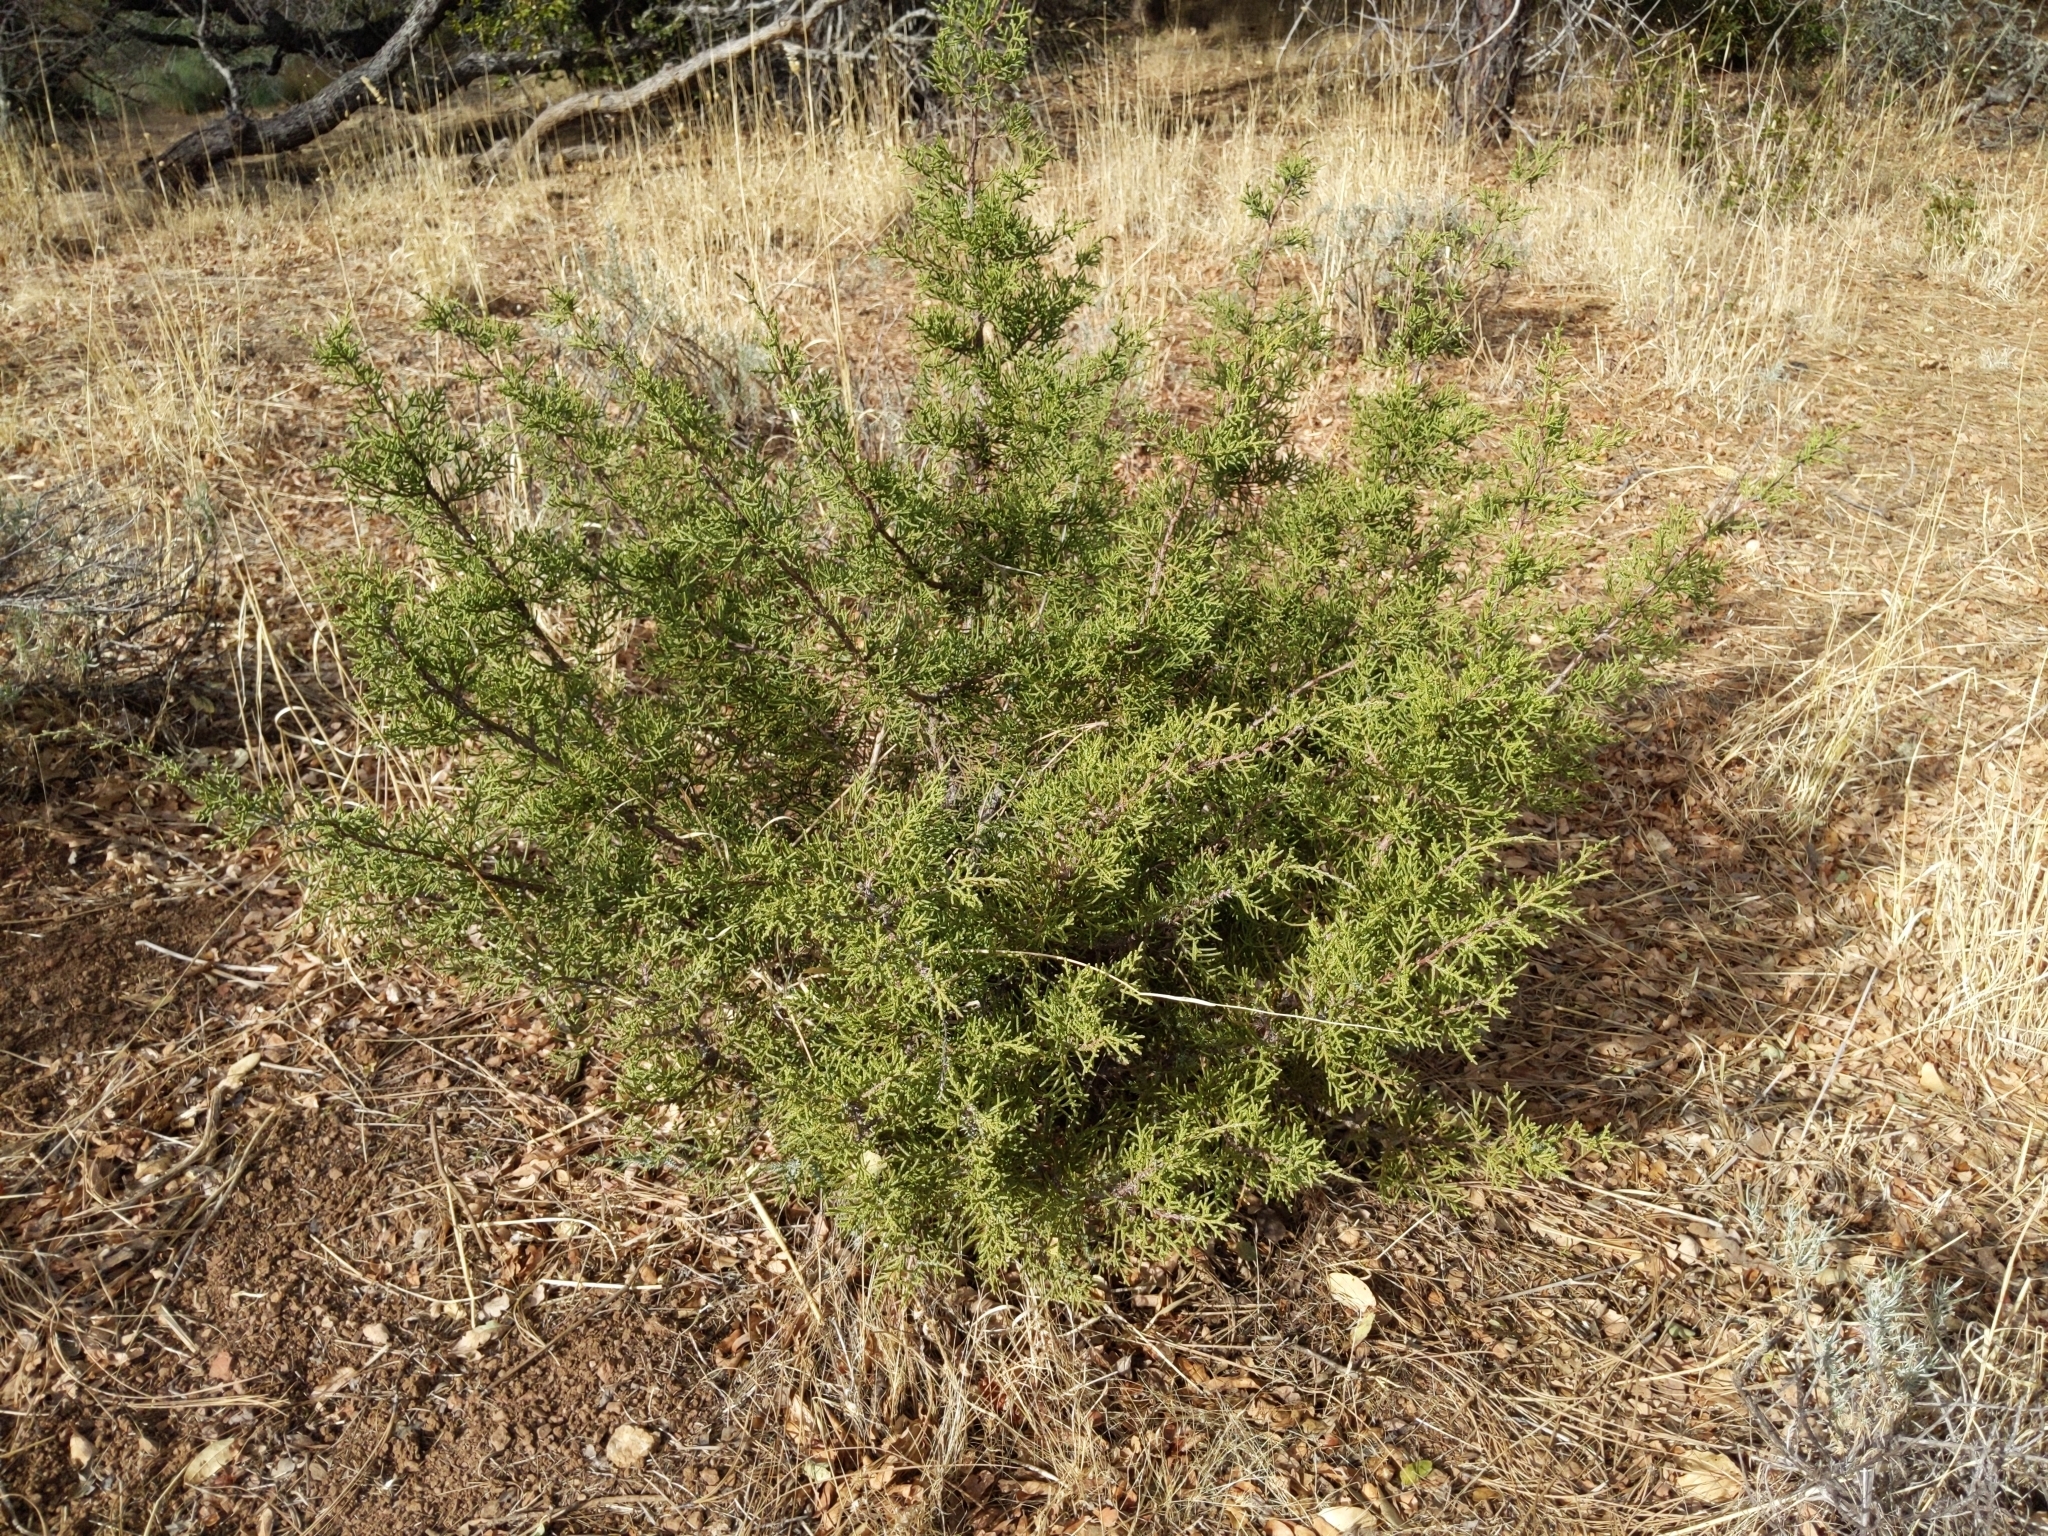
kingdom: Plantae
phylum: Tracheophyta
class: Pinopsida
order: Pinales
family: Cupressaceae
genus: Juniperus
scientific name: Juniperus californica
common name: California juniper
